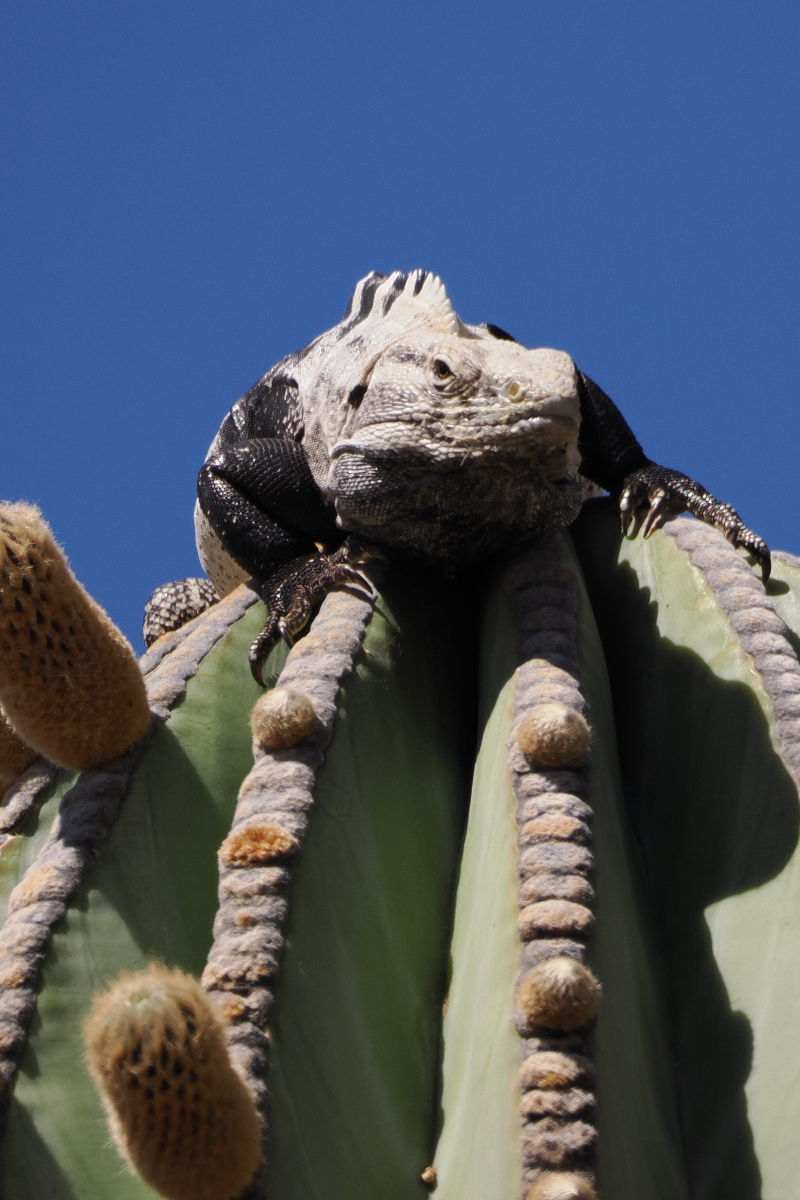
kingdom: Animalia
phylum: Chordata
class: Squamata
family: Iguanidae
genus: Ctenosaura
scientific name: Ctenosaura conspicuosa
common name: San esteban spinytail iguana
